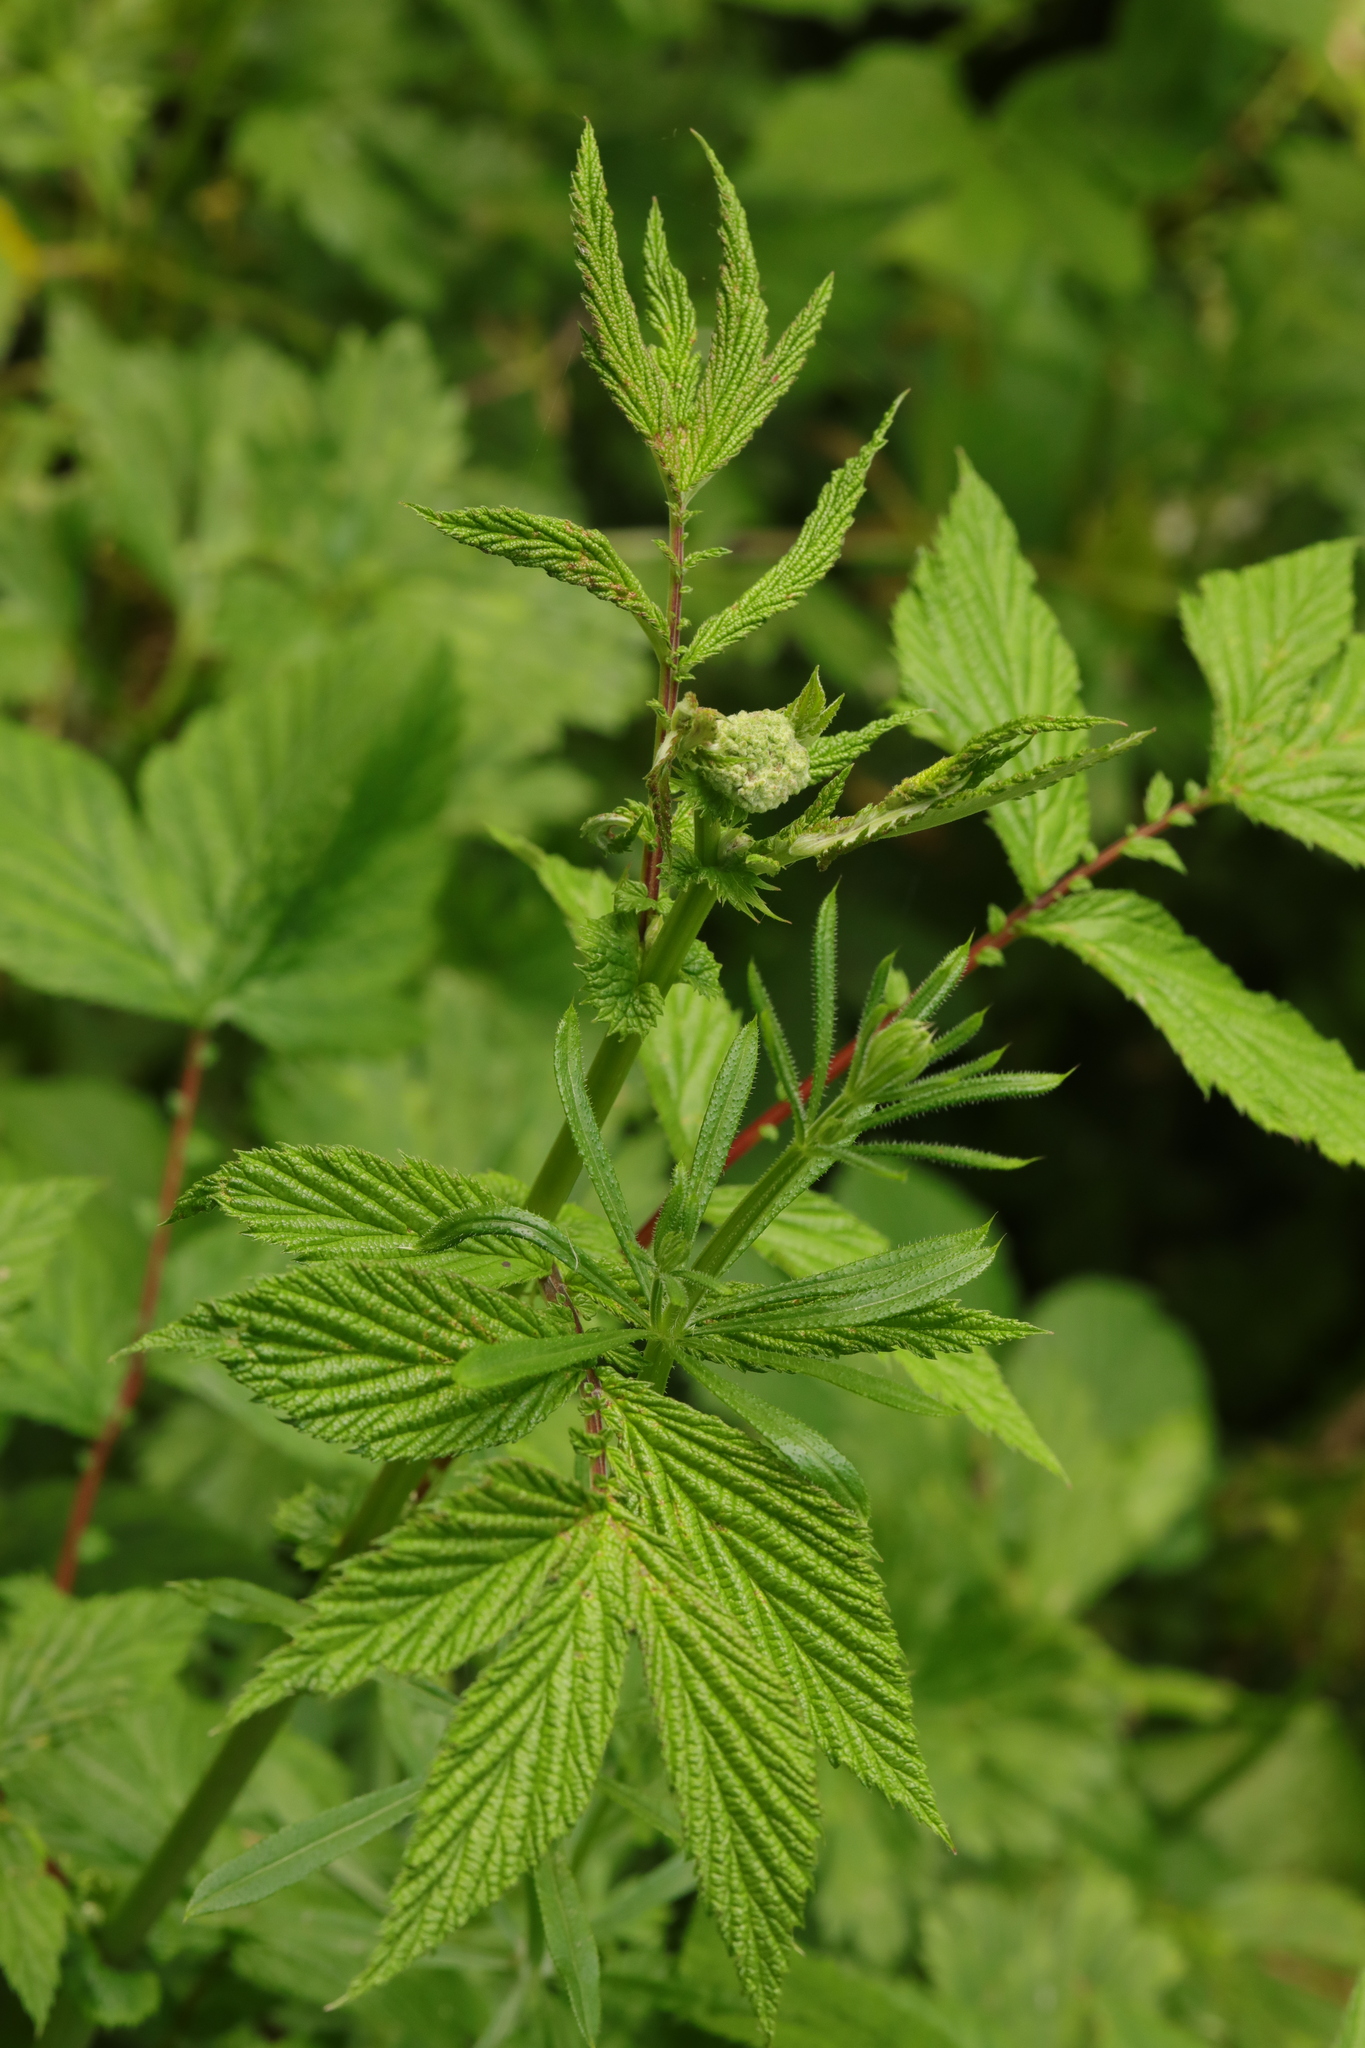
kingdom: Plantae
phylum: Tracheophyta
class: Magnoliopsida
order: Rosales
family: Rosaceae
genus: Filipendula
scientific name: Filipendula ulmaria
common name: Meadowsweet
